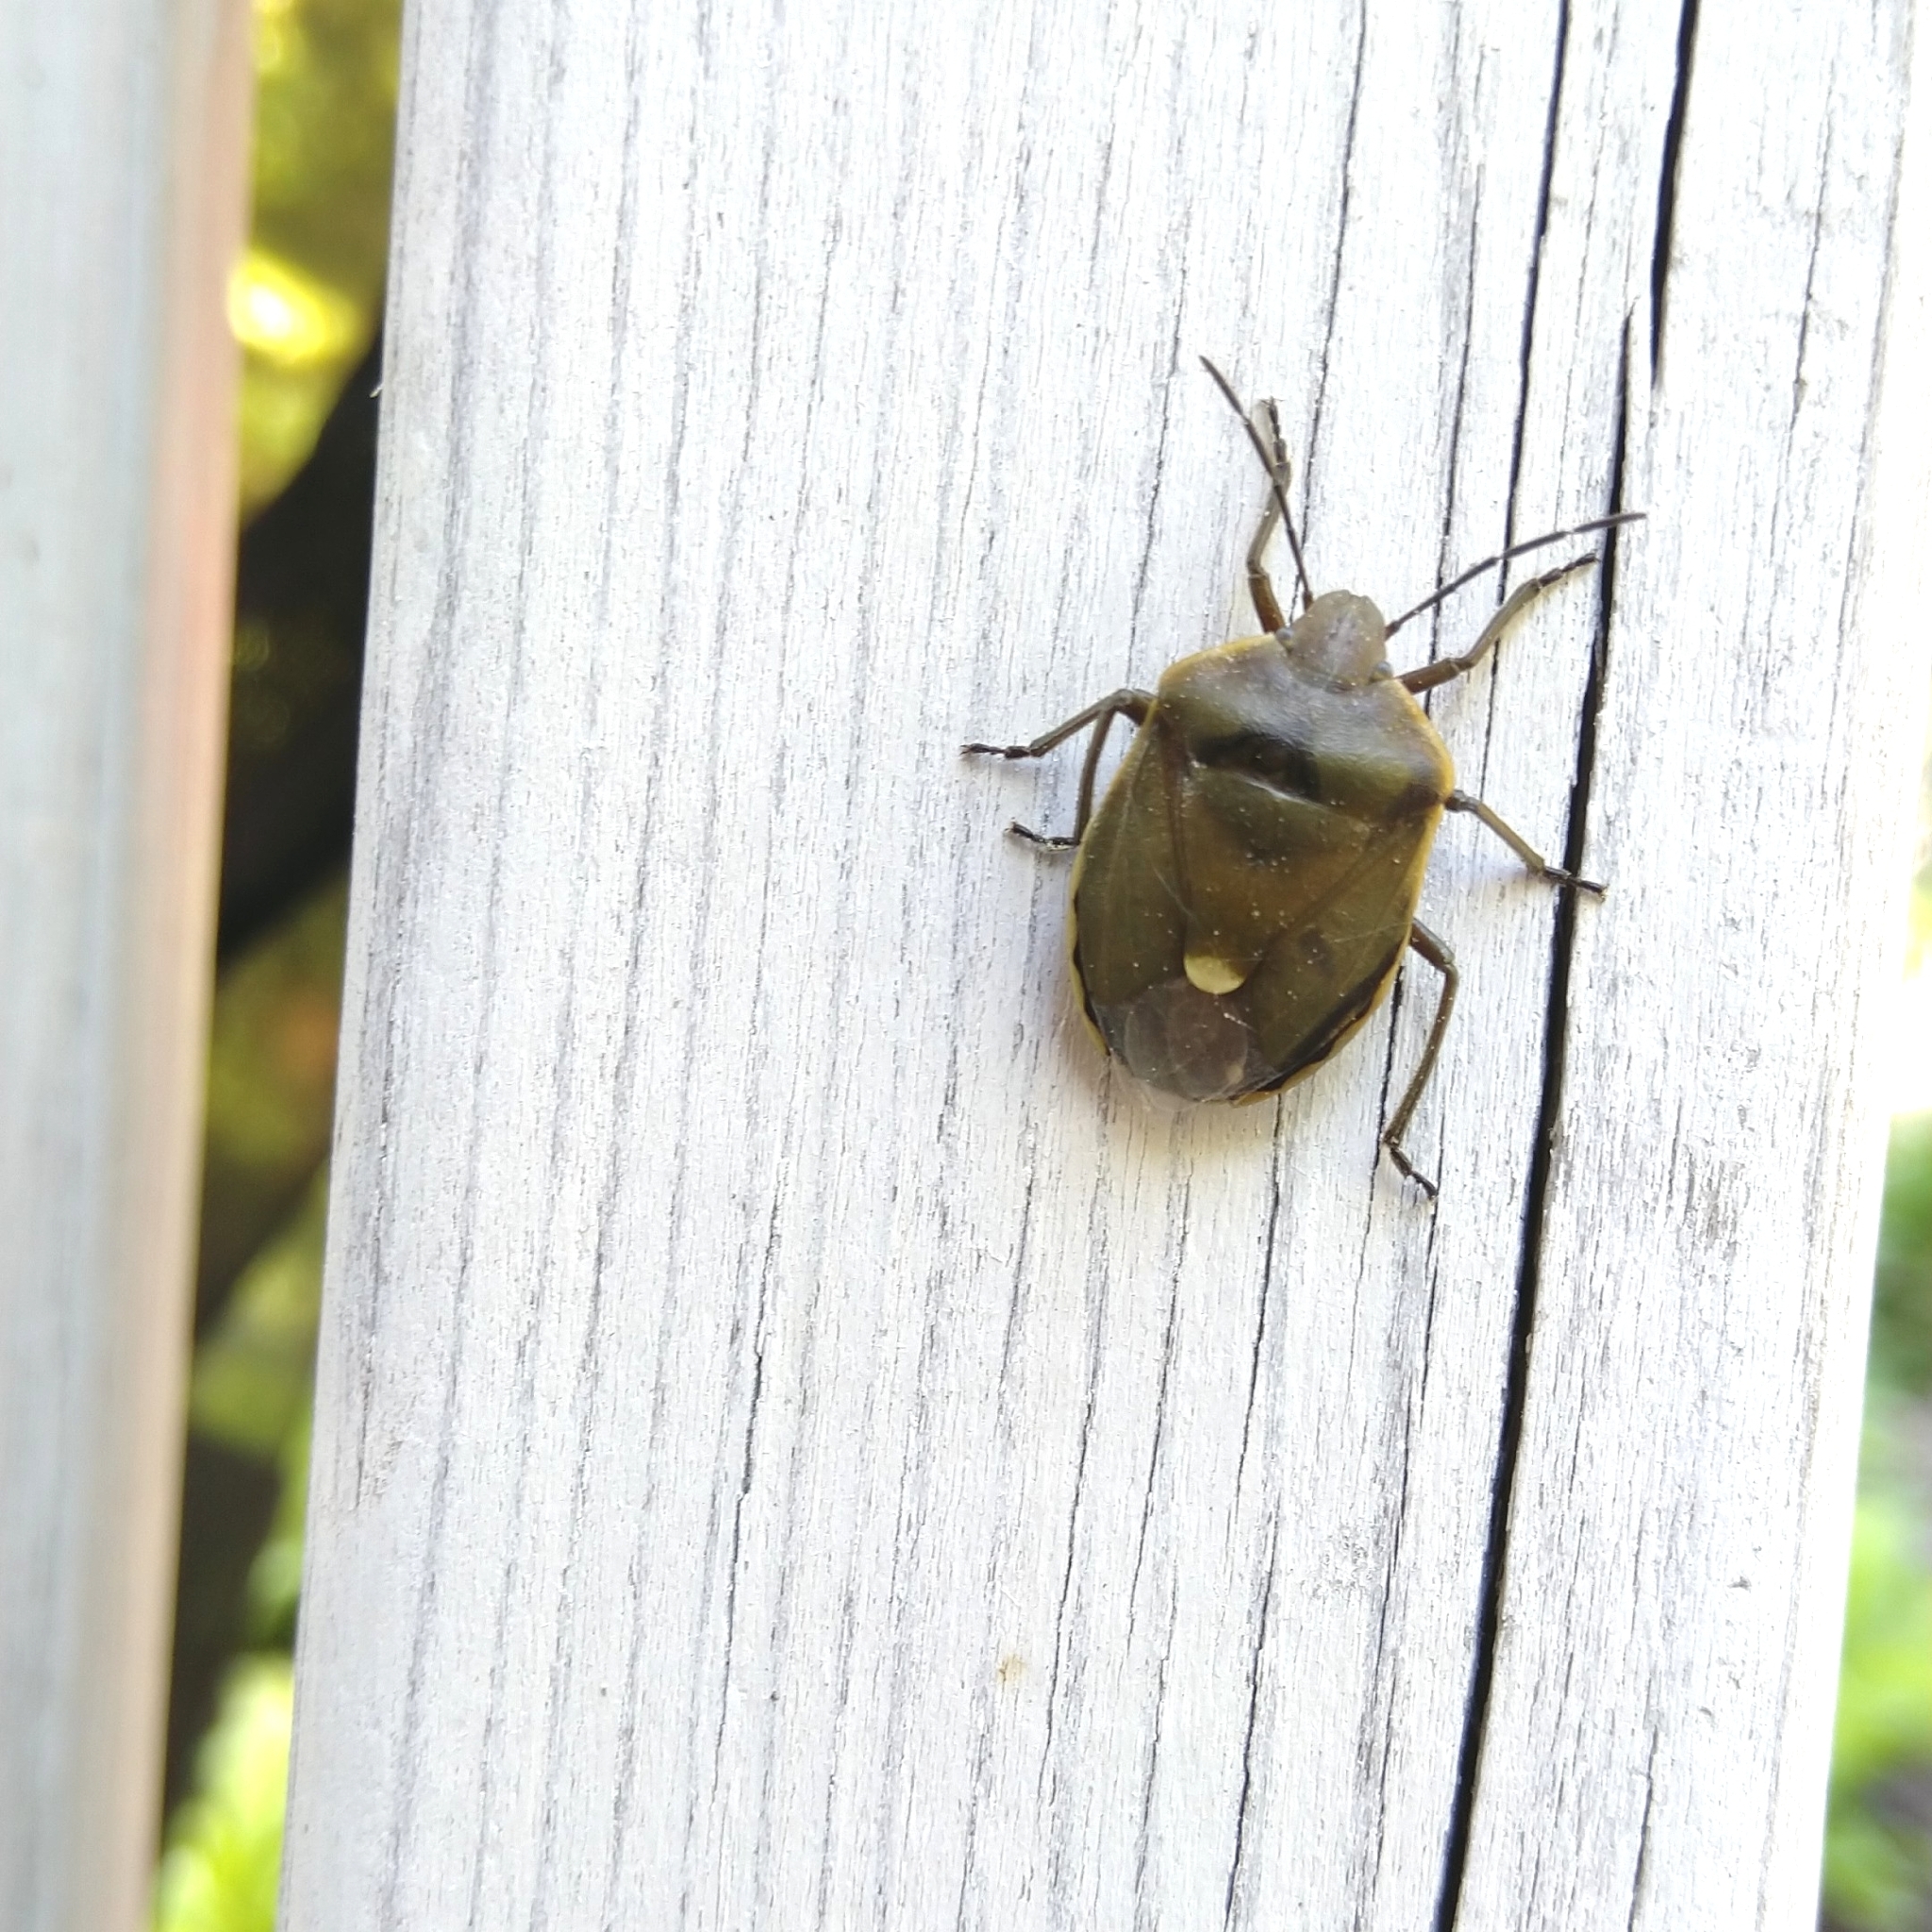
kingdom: Animalia
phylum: Arthropoda
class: Insecta
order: Hemiptera
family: Pentatomidae
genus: Chlorochroa
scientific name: Chlorochroa pinicola
